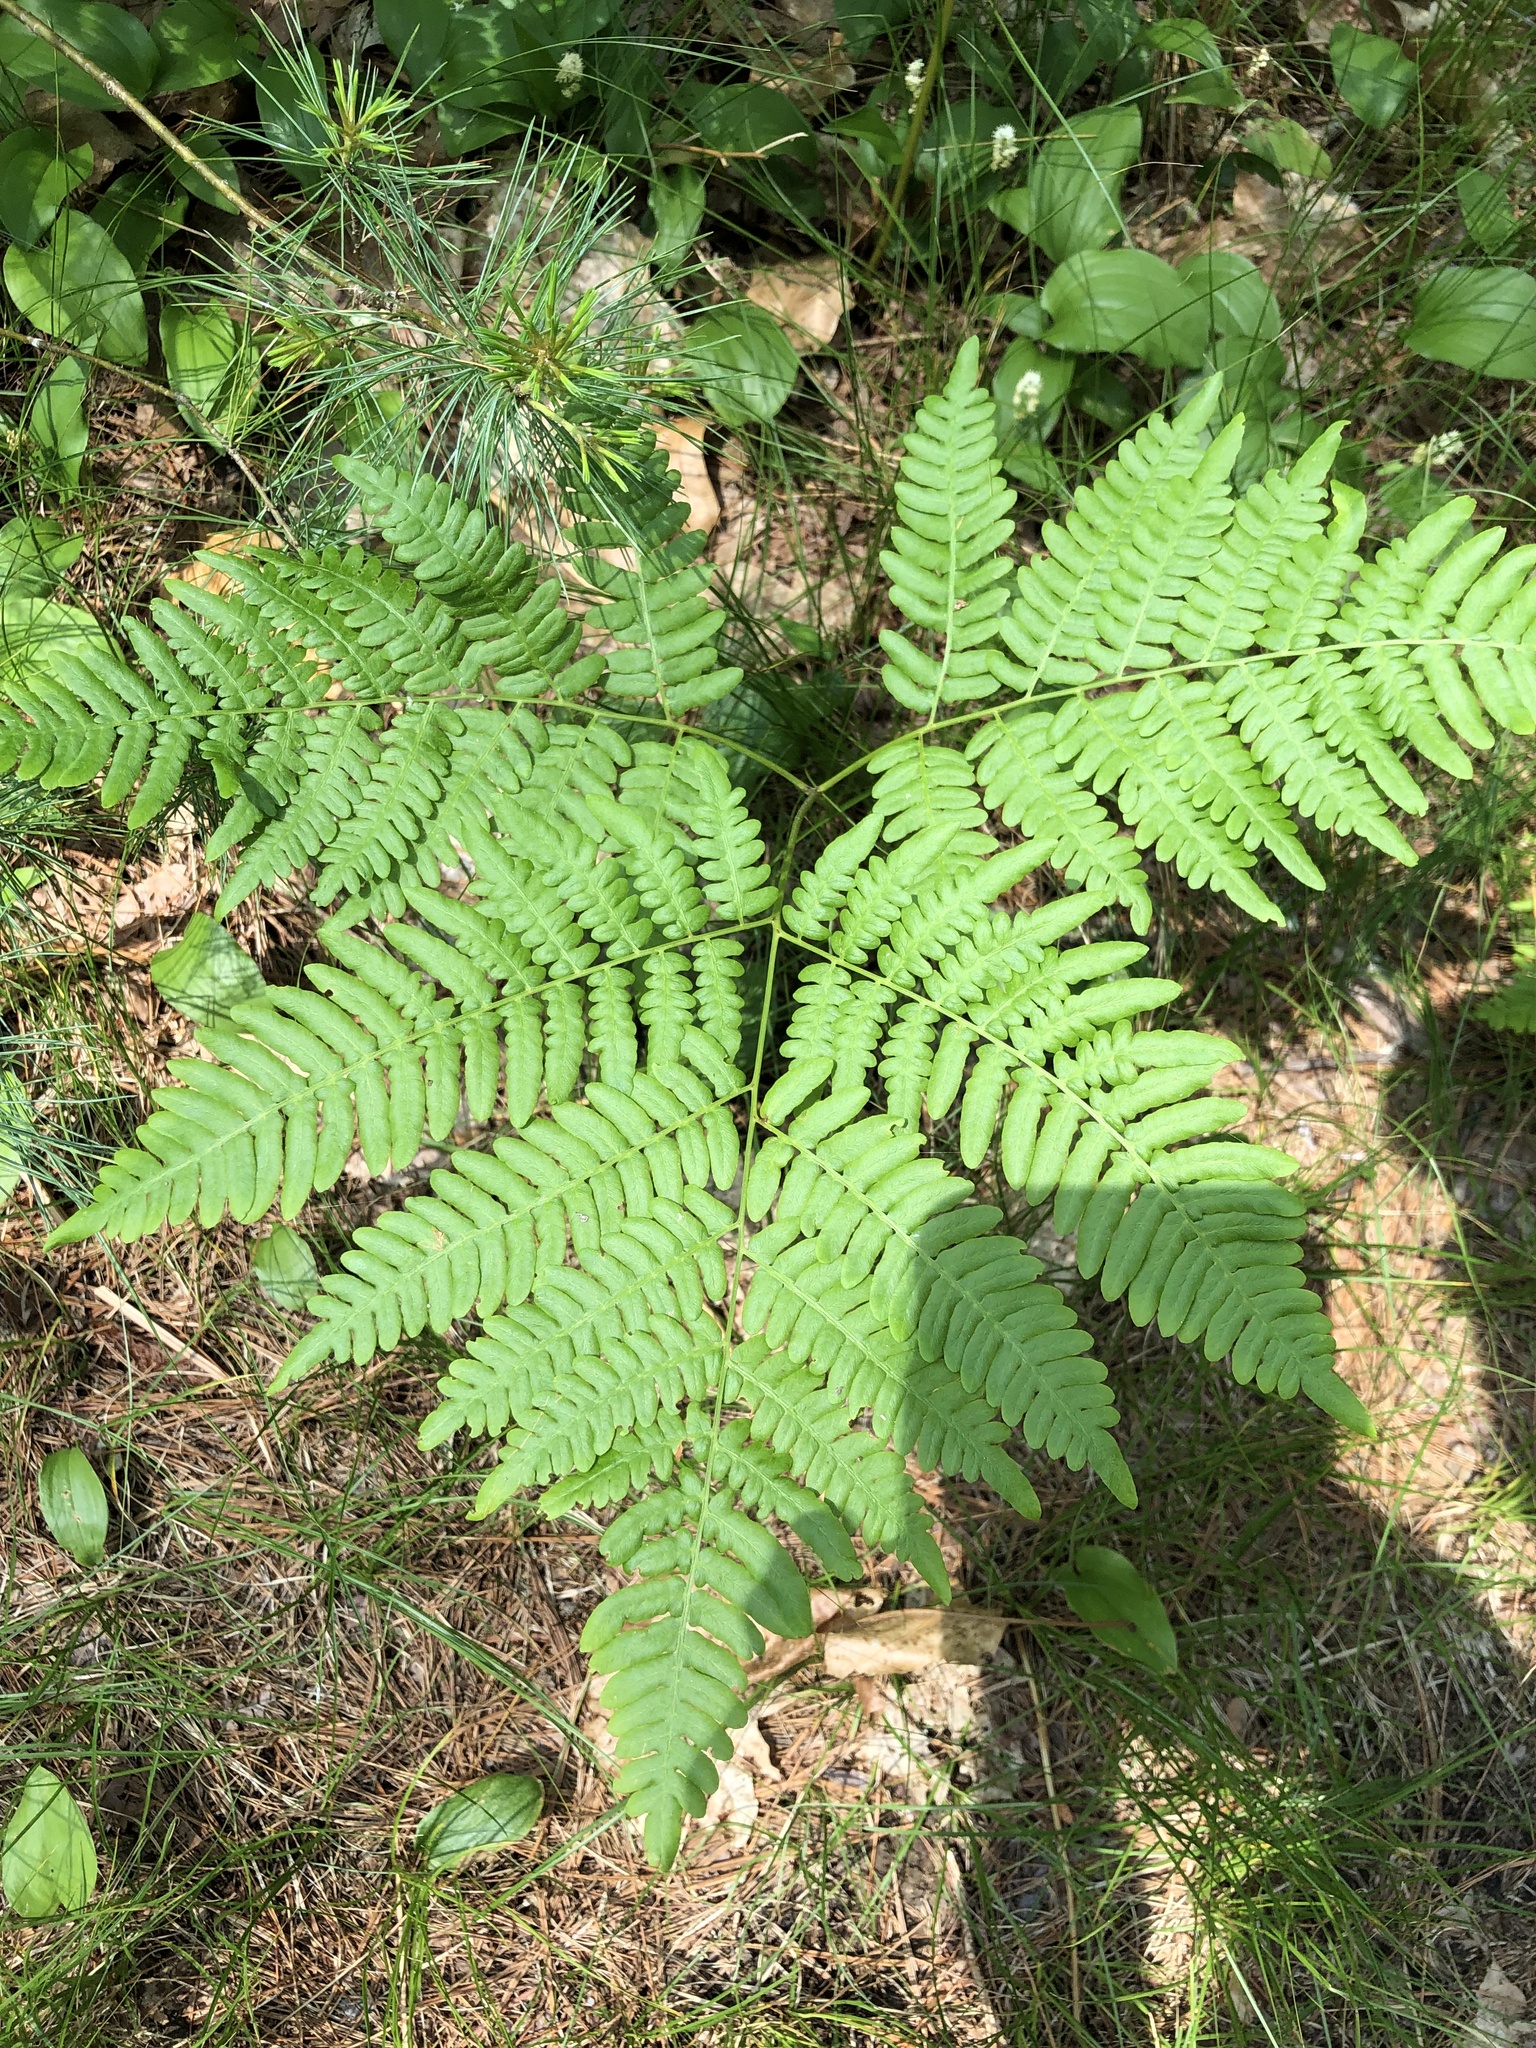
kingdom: Plantae
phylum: Tracheophyta
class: Polypodiopsida
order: Polypodiales
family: Dennstaedtiaceae
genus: Pteridium
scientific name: Pteridium aquilinum
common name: Bracken
